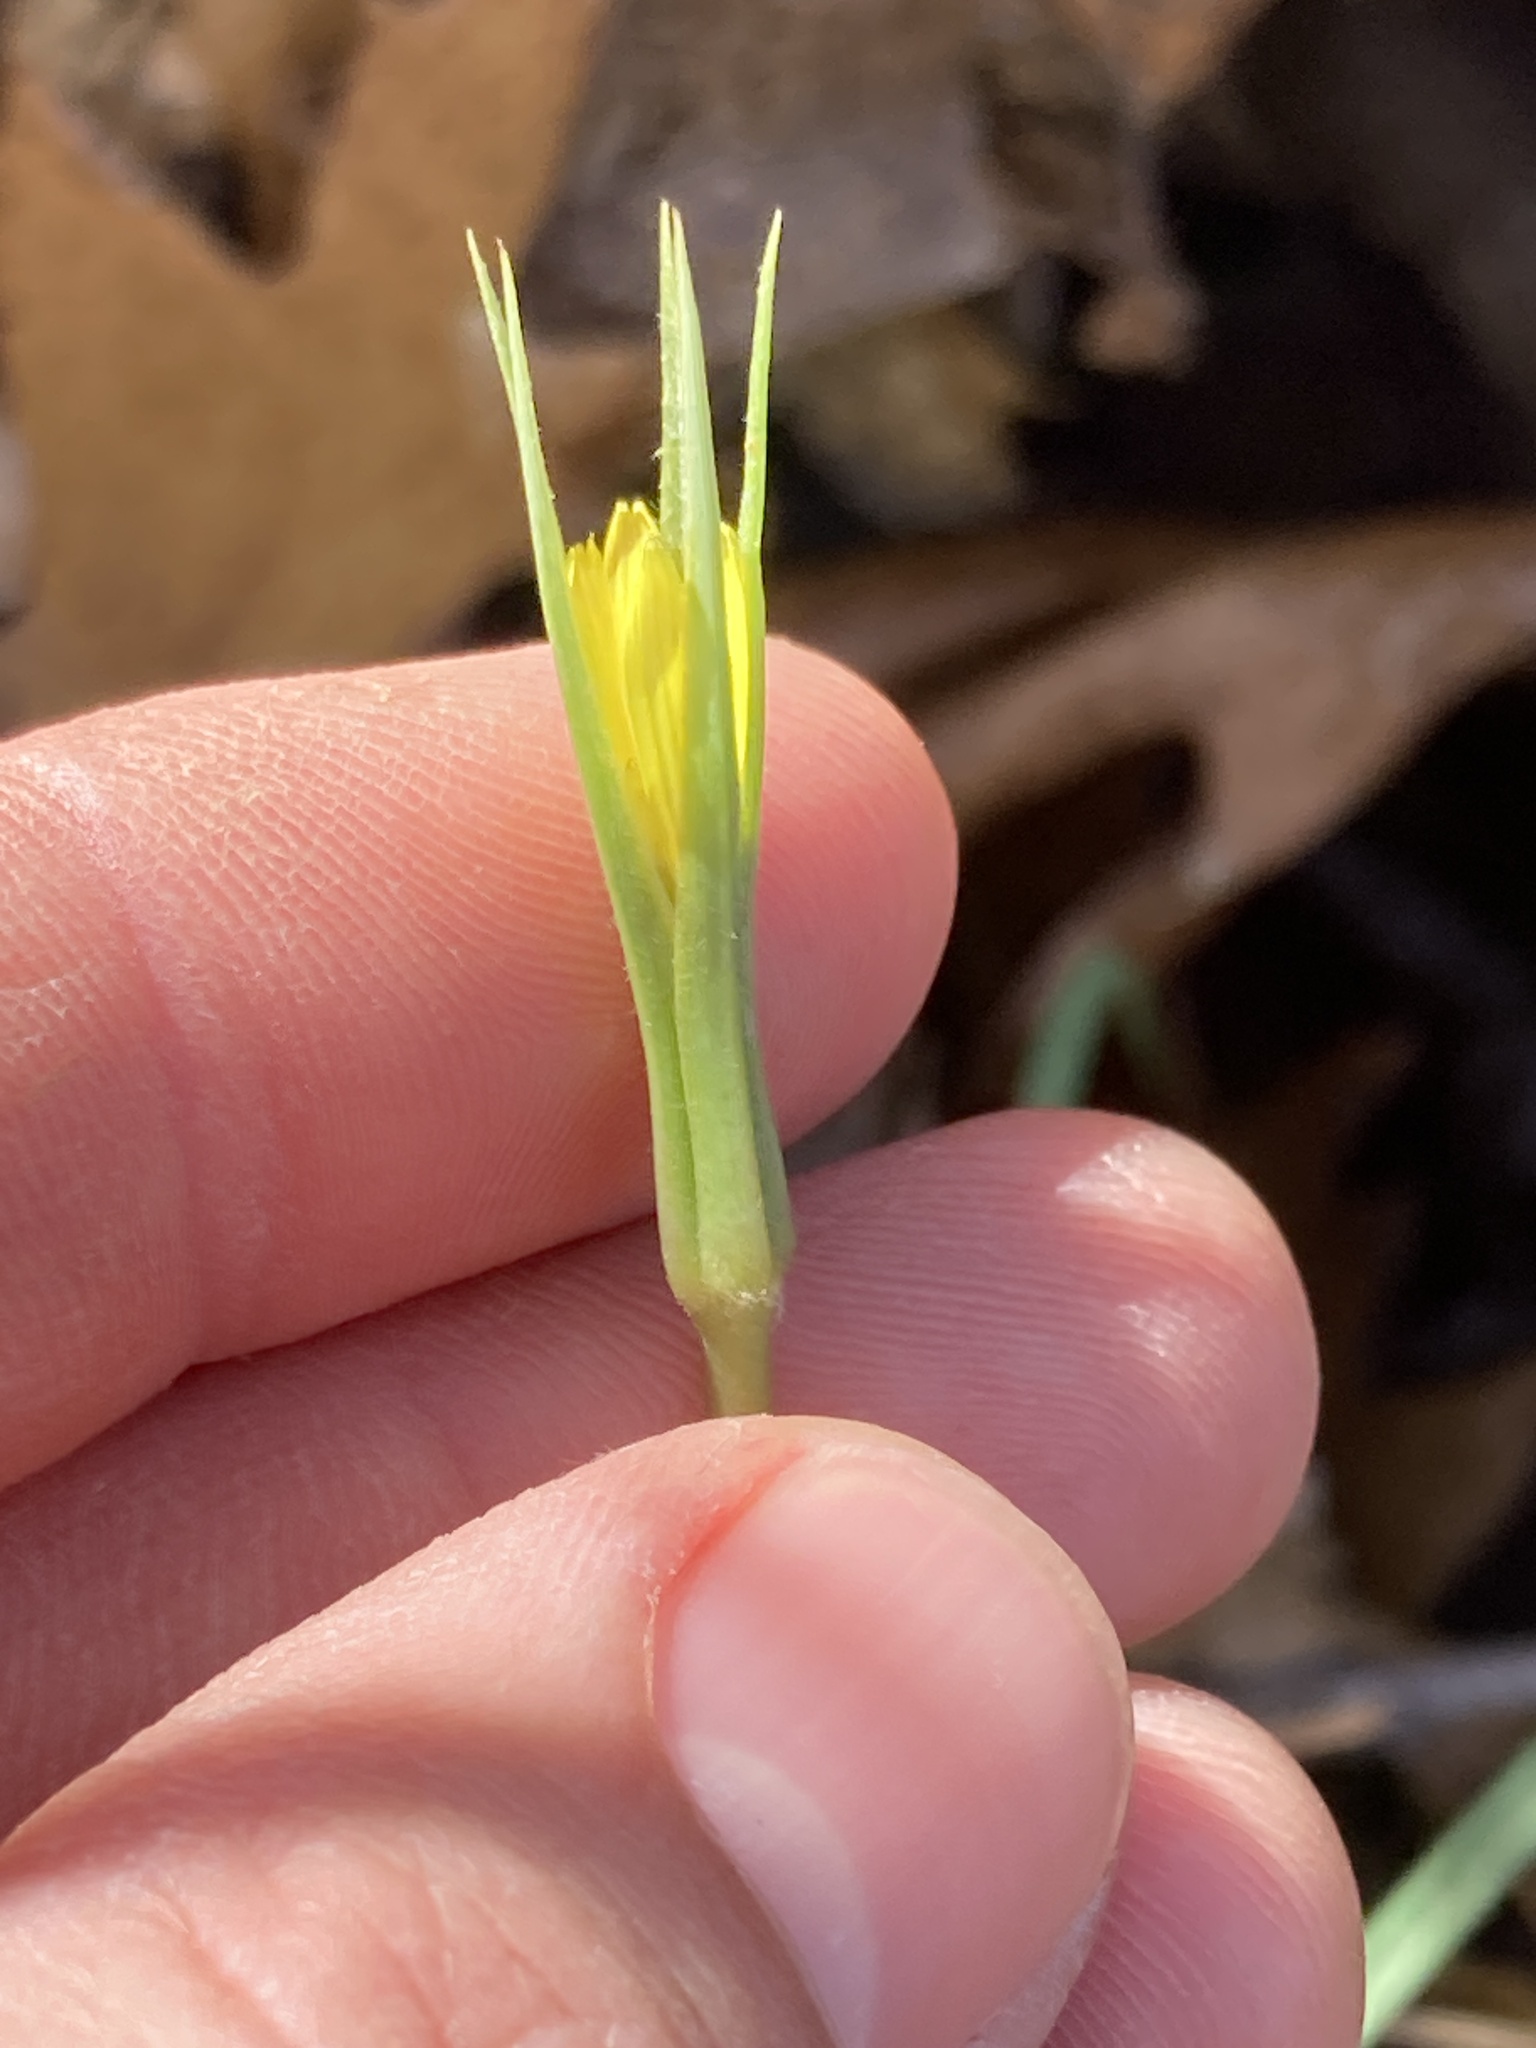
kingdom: Plantae
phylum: Tracheophyta
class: Magnoliopsida
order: Asterales
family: Asteraceae
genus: Tragopogon
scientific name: Tragopogon dubius
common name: Yellow salsify
